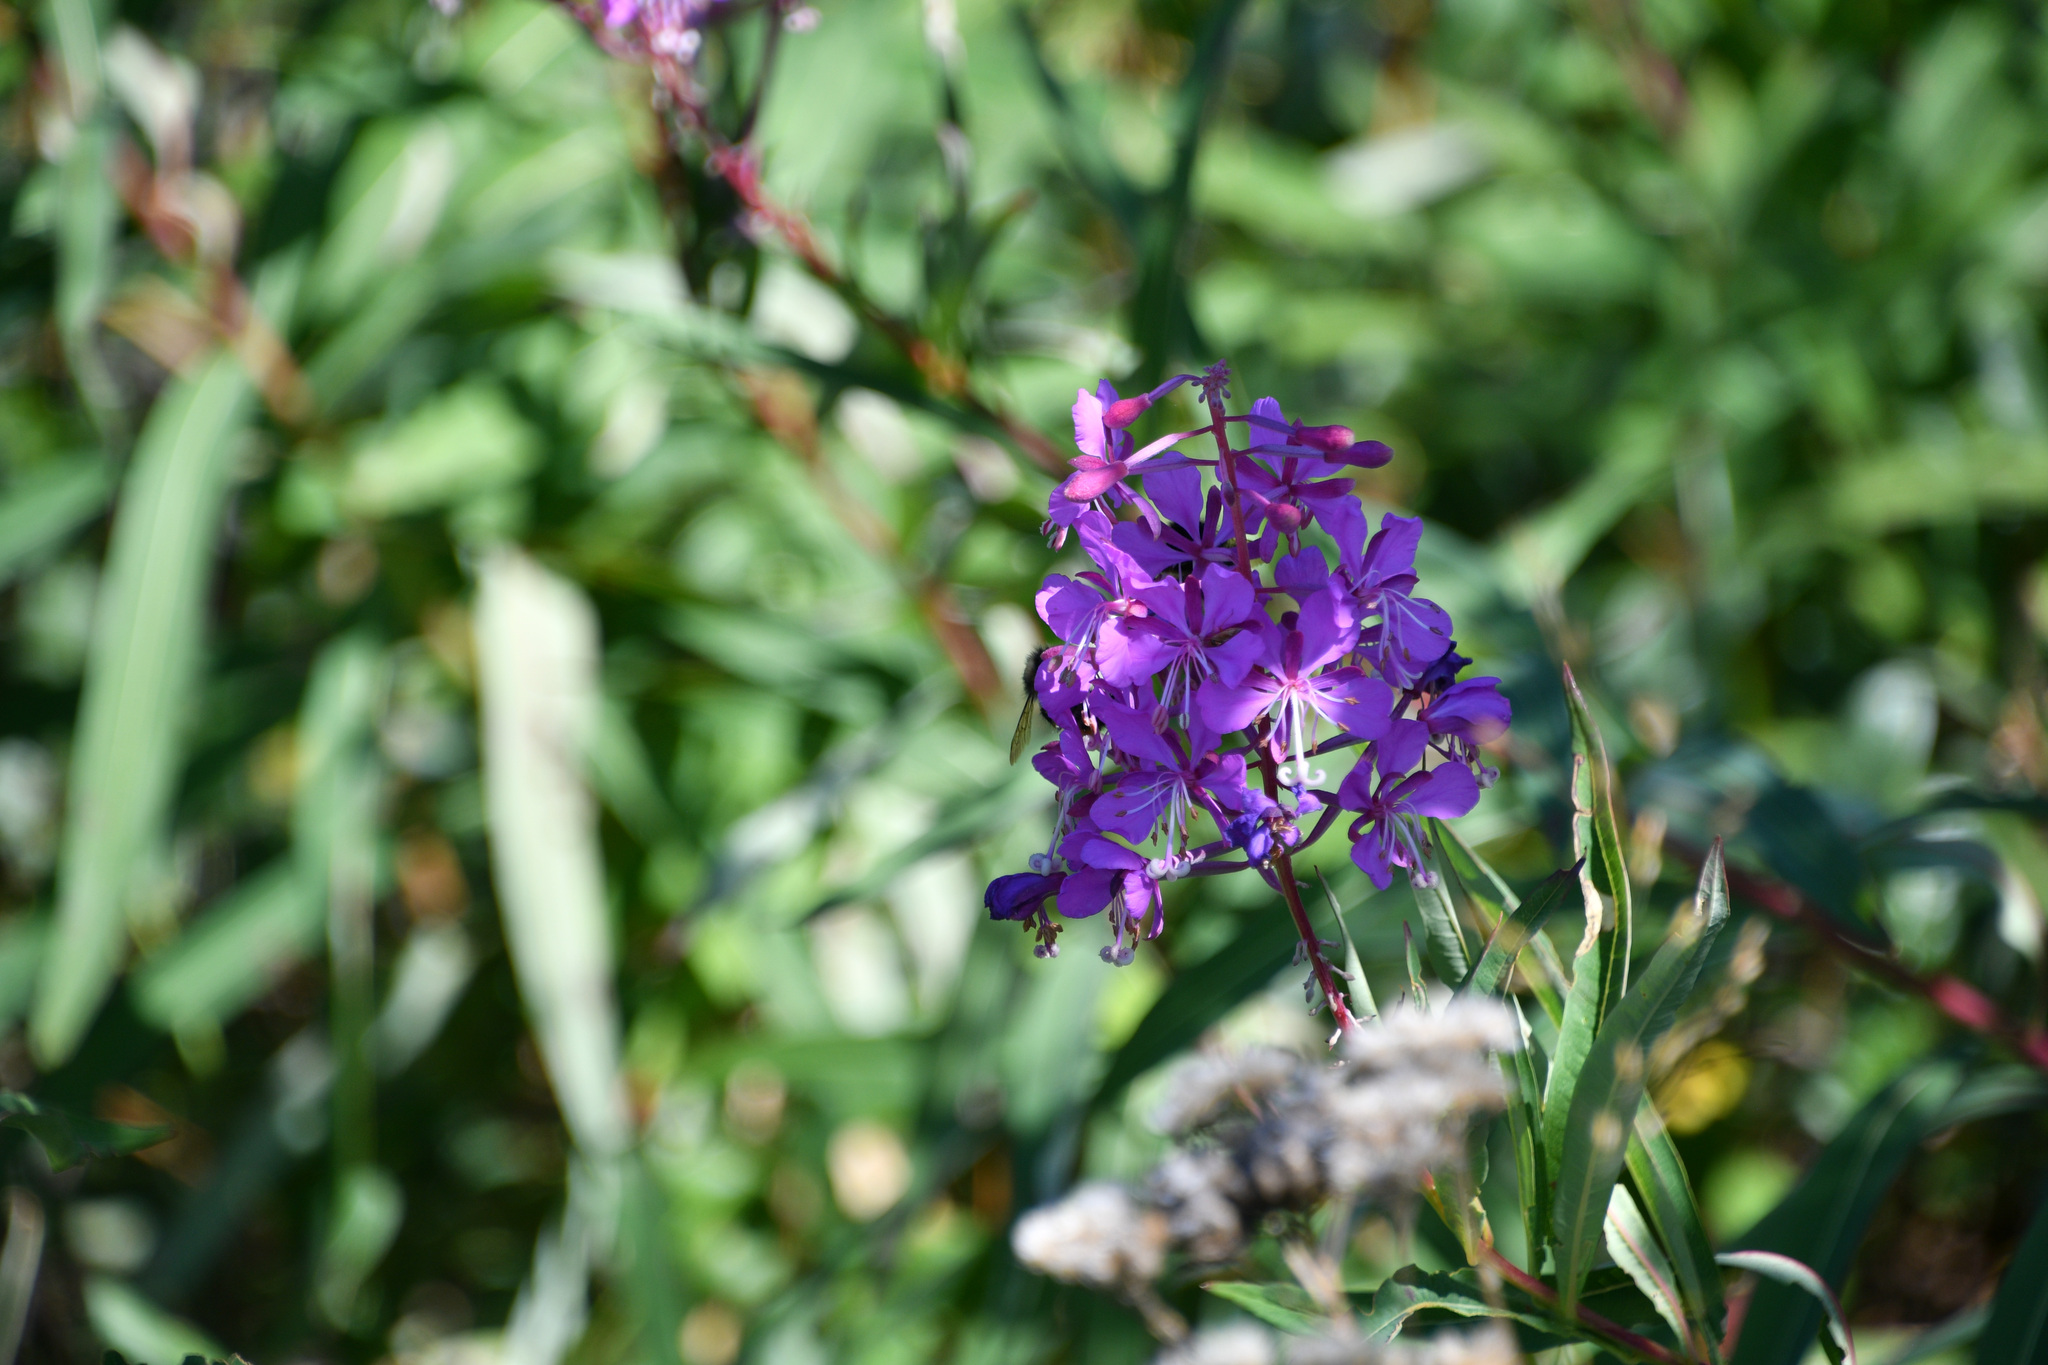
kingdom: Plantae
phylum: Tracheophyta
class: Magnoliopsida
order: Myrtales
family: Onagraceae
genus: Chamaenerion
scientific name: Chamaenerion angustifolium
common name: Fireweed
